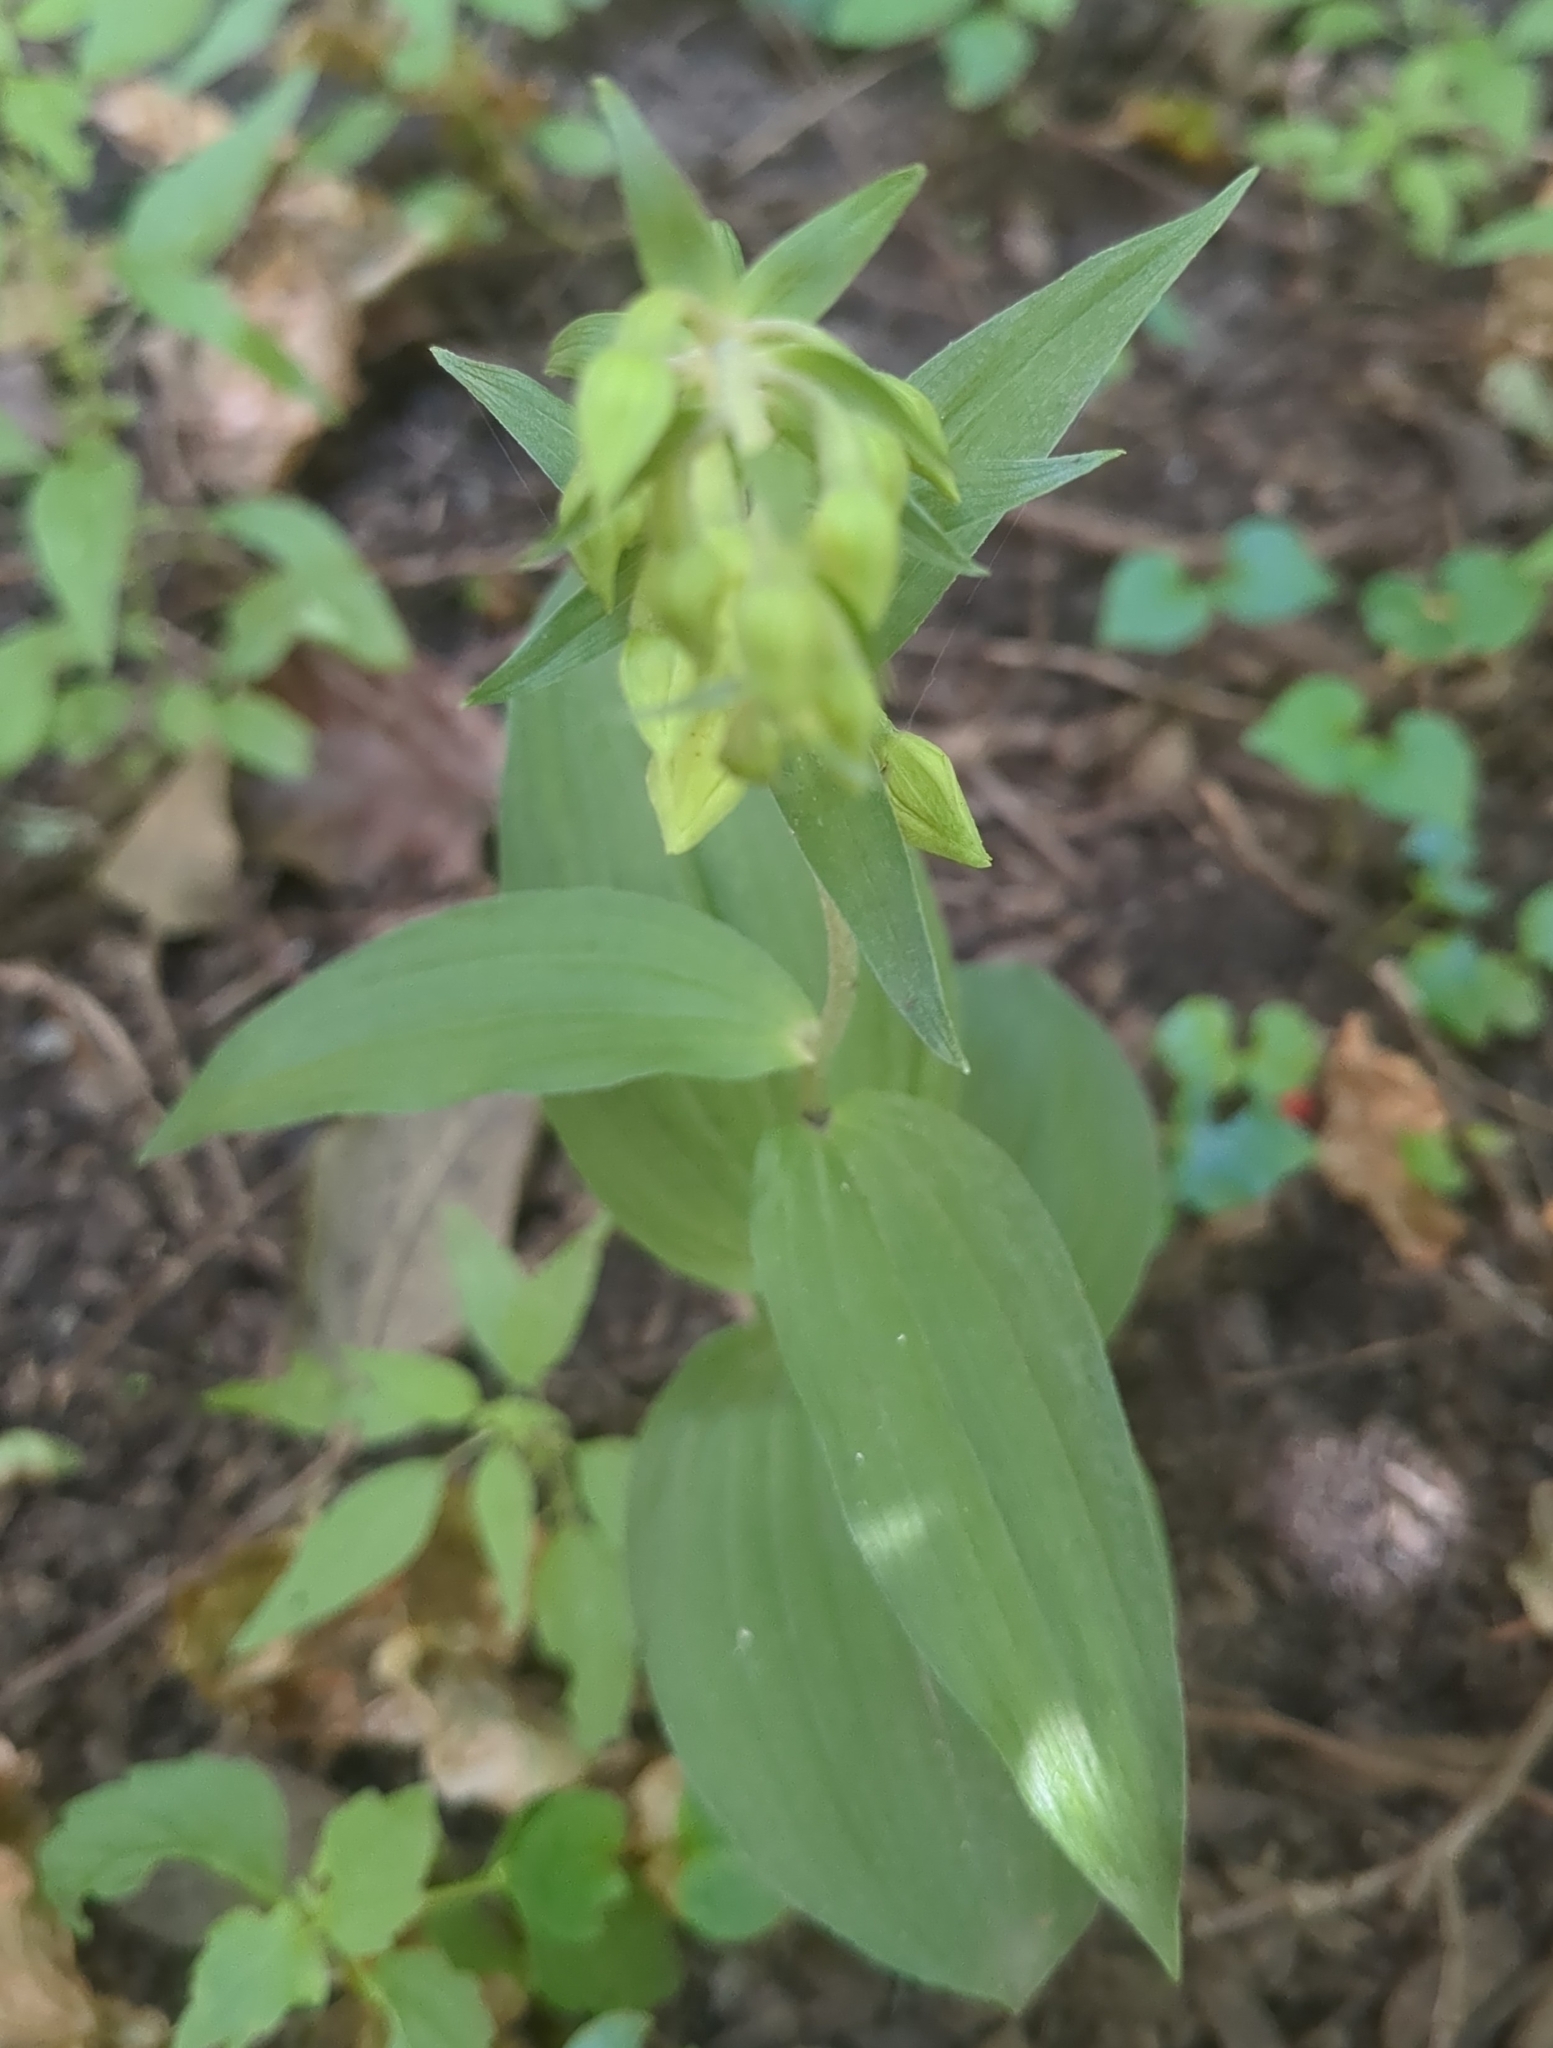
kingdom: Plantae
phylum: Tracheophyta
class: Liliopsida
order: Asparagales
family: Orchidaceae
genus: Epipactis
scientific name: Epipactis helleborine
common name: Broad-leaved helleborine
